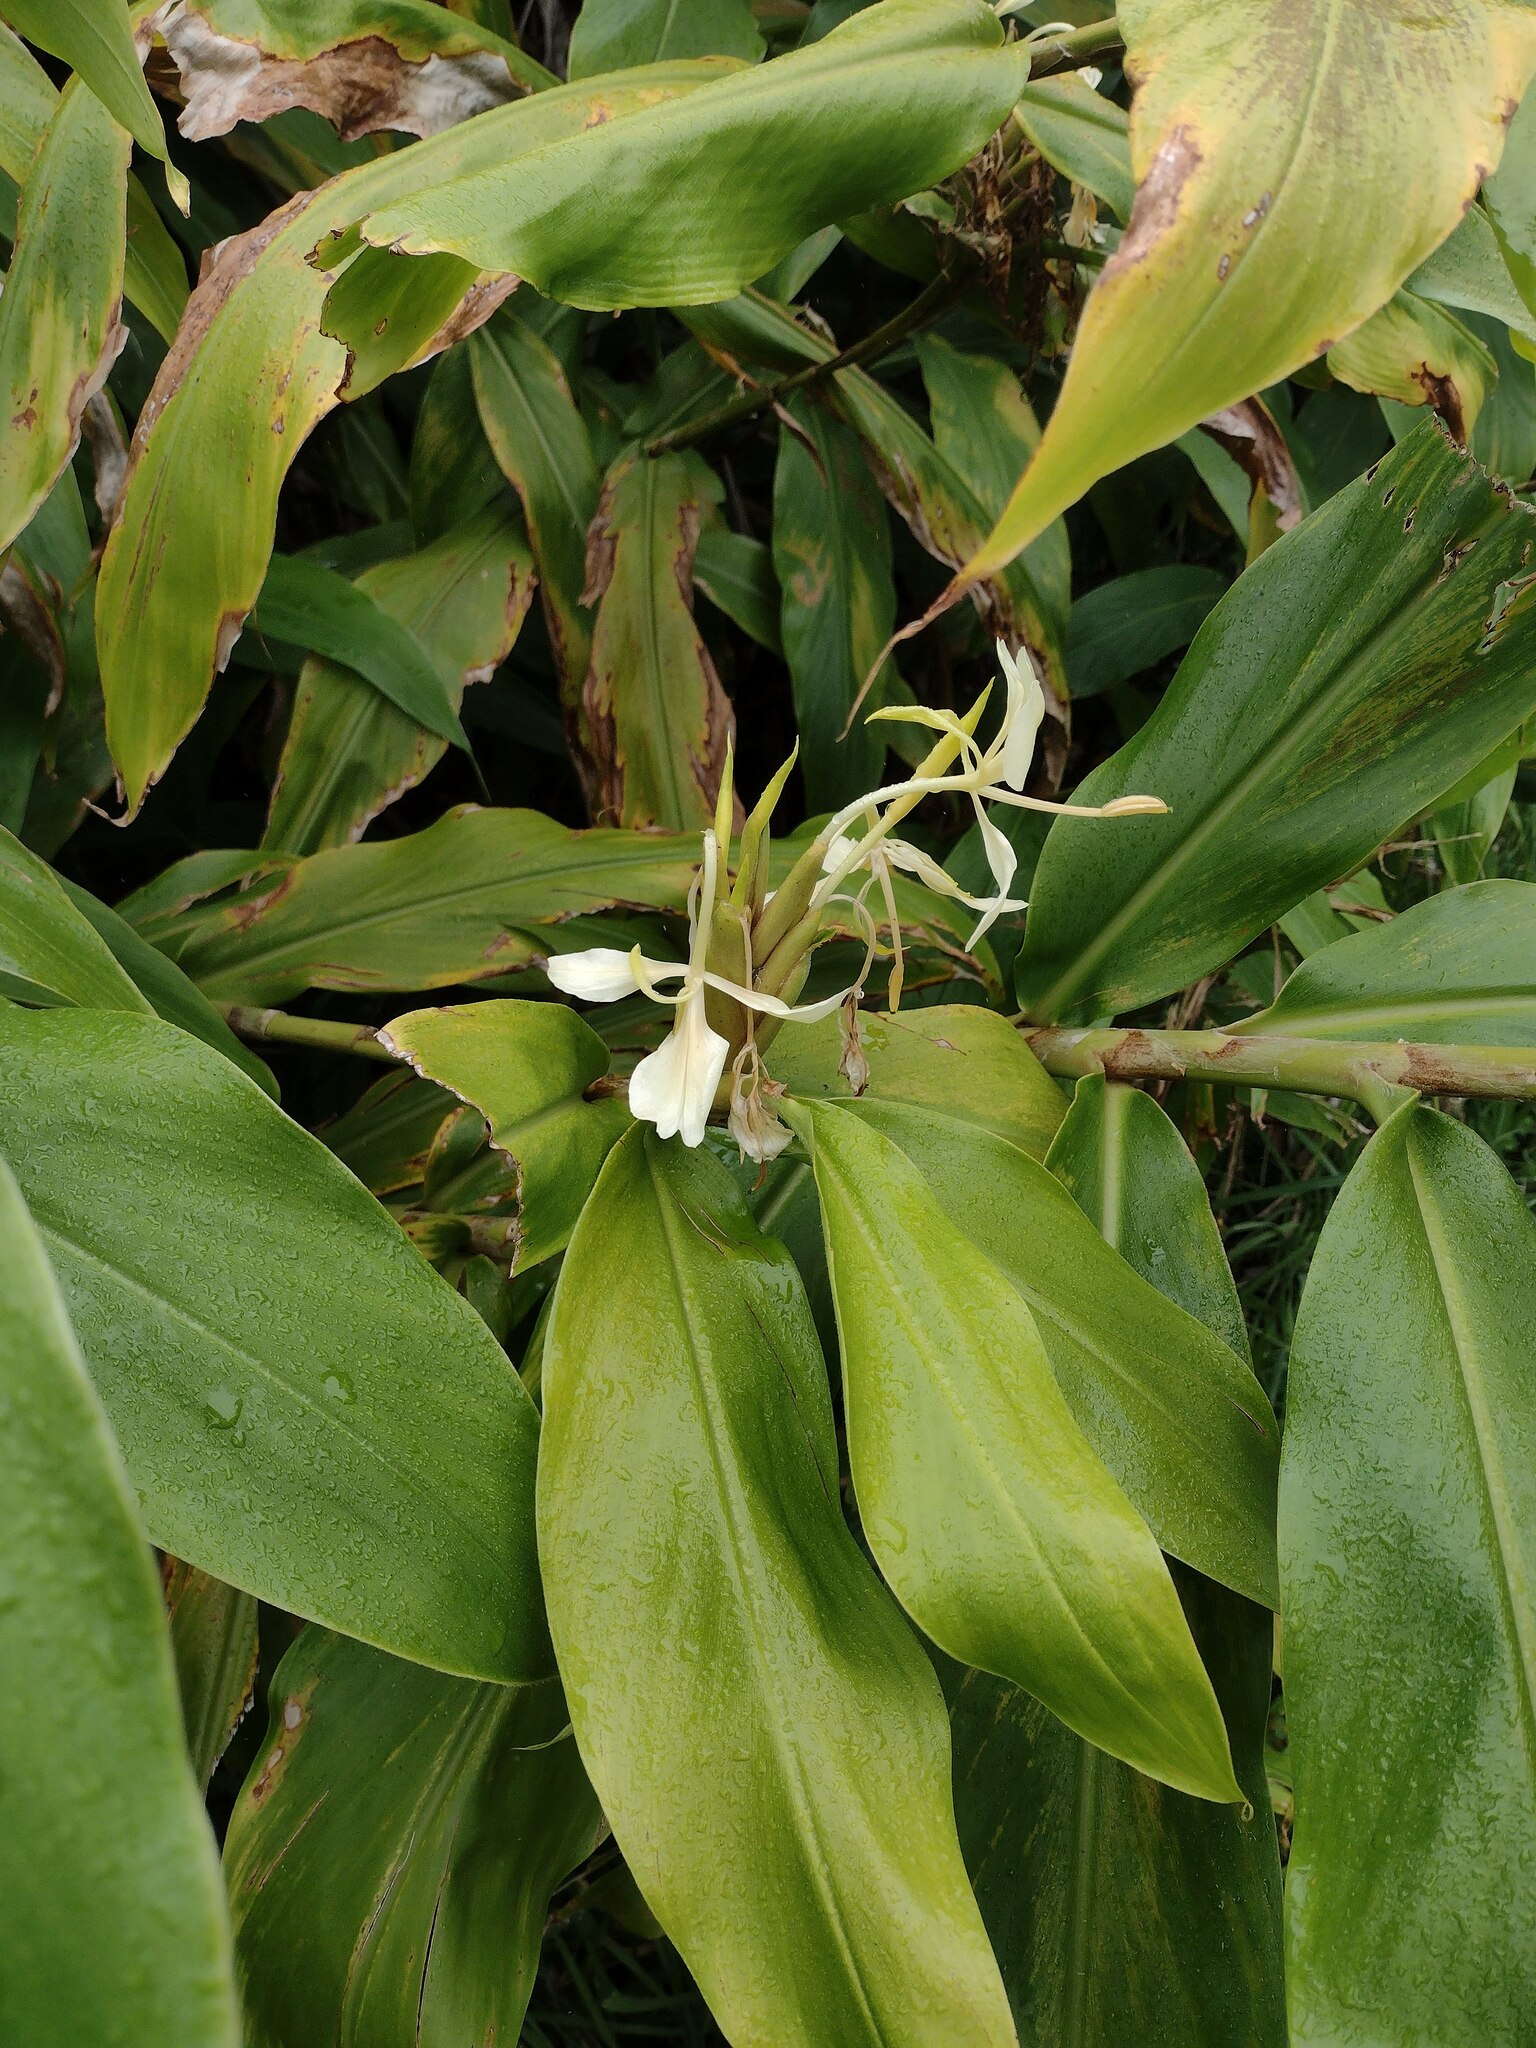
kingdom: Plantae
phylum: Tracheophyta
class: Liliopsida
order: Zingiberales
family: Zingiberaceae
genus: Hedychium
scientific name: Hedychium flavescens
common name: Yellow ginger
